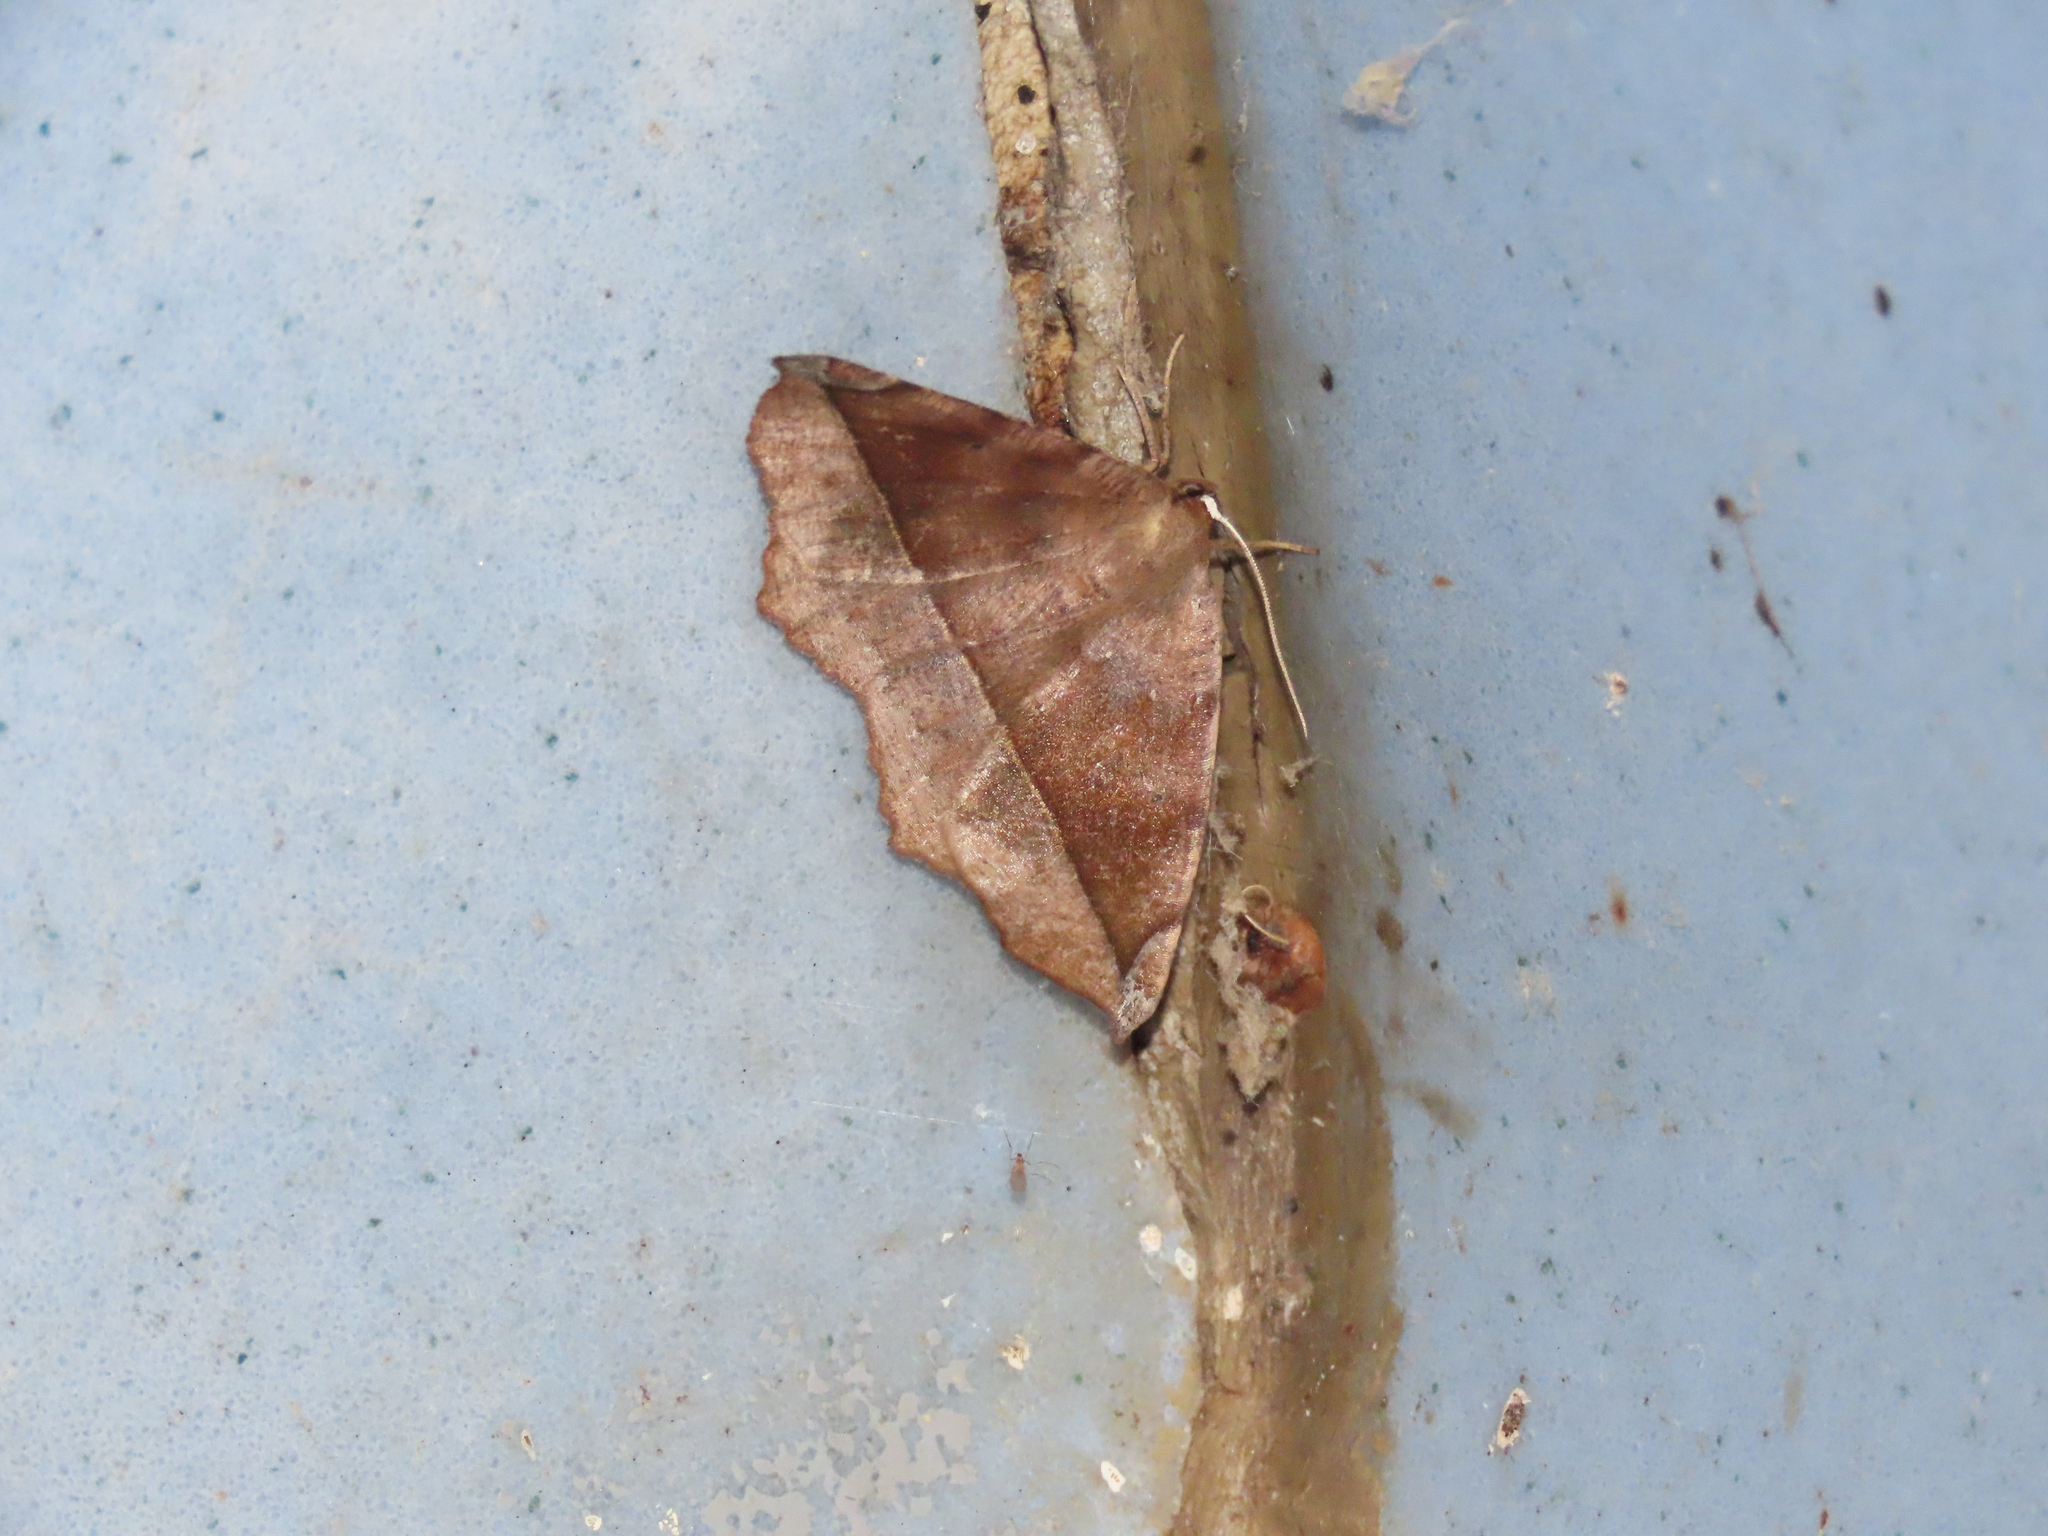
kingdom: Animalia
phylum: Arthropoda
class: Insecta
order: Lepidoptera
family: Geometridae
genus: Eutrapela
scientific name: Eutrapela clemataria
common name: Curved-toothed geometer
